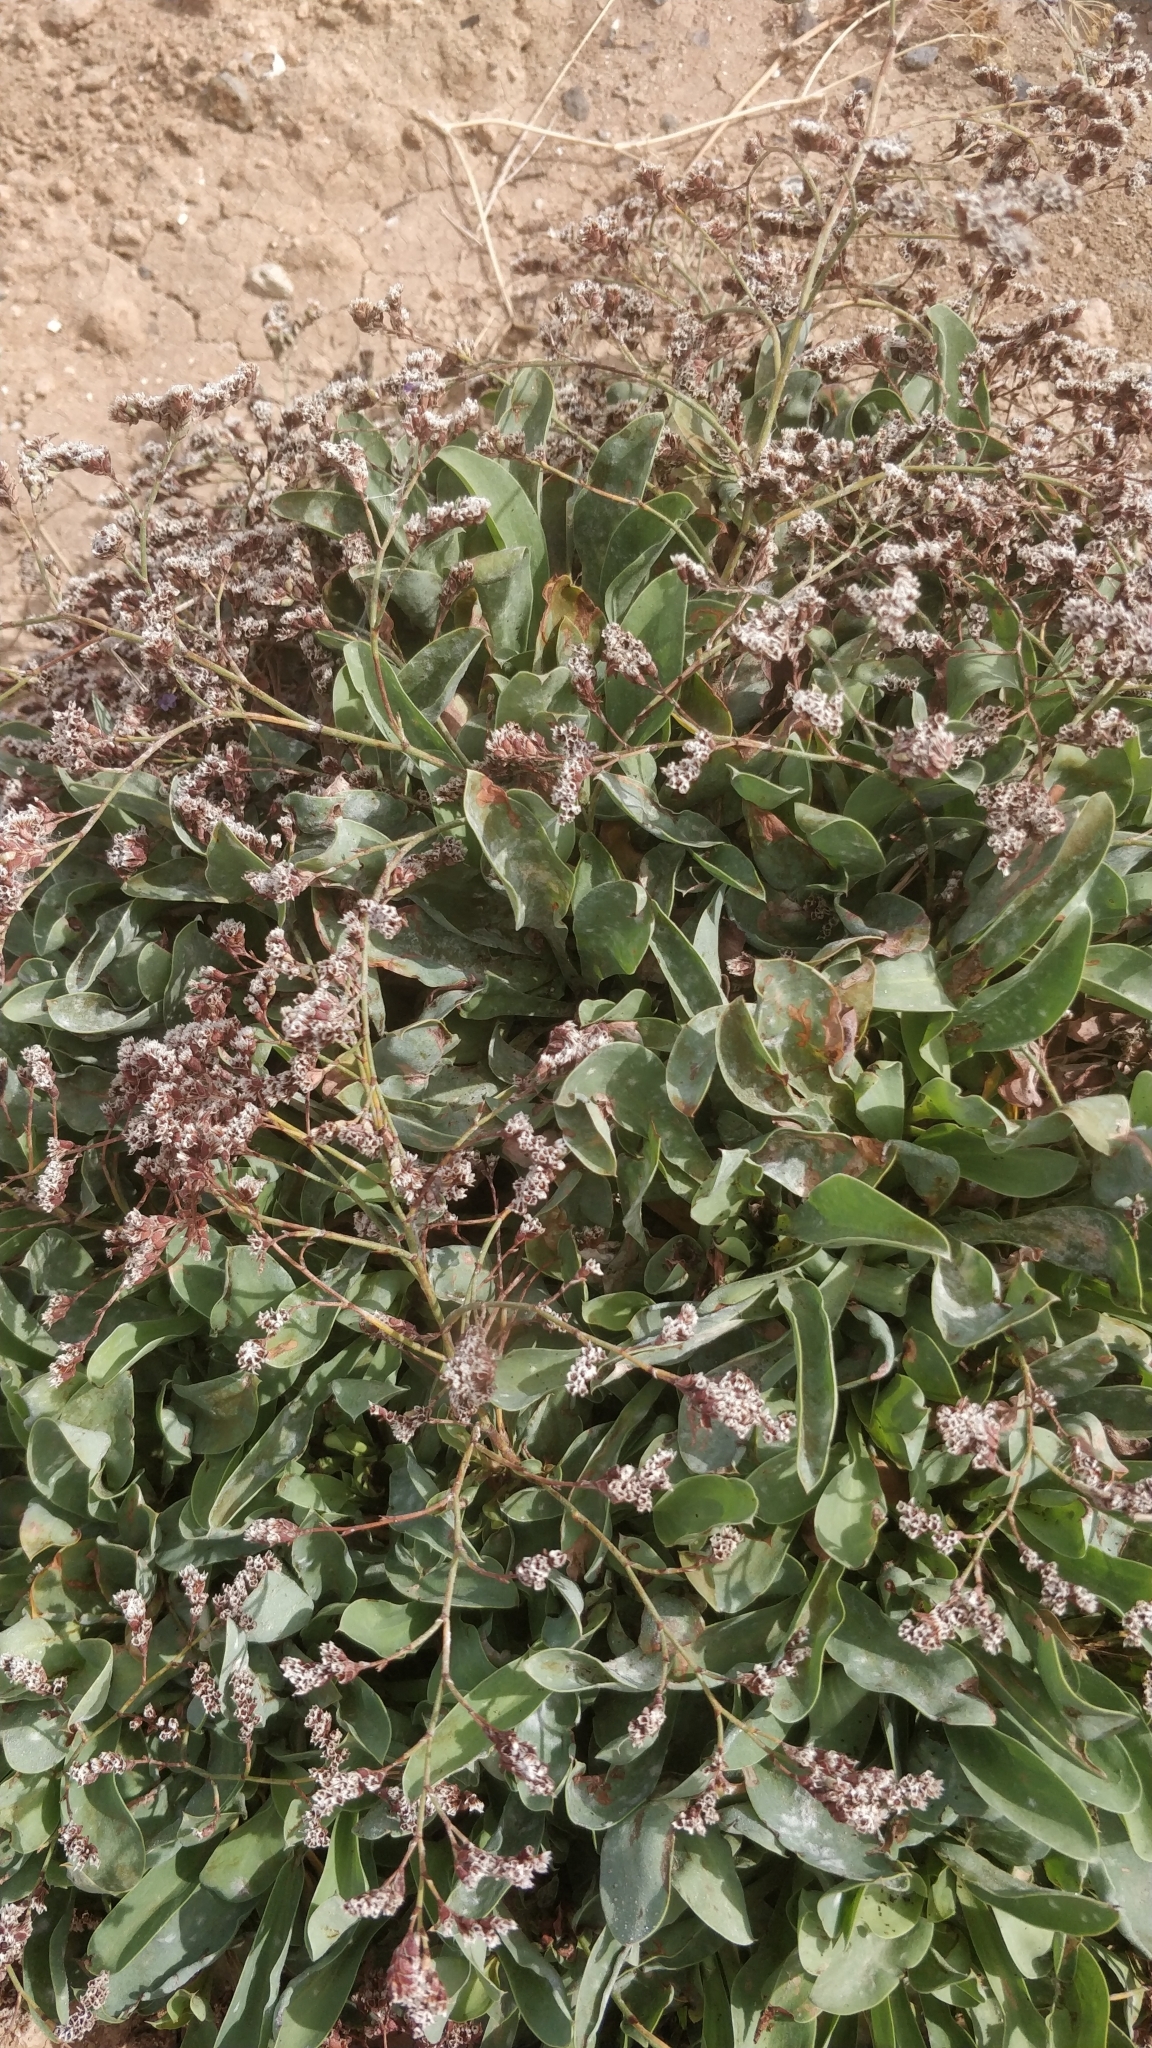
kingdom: Plantae
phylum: Tracheophyta
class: Magnoliopsida
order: Caryophyllales
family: Plumbaginaceae
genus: Limonium
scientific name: Limonium lowei
